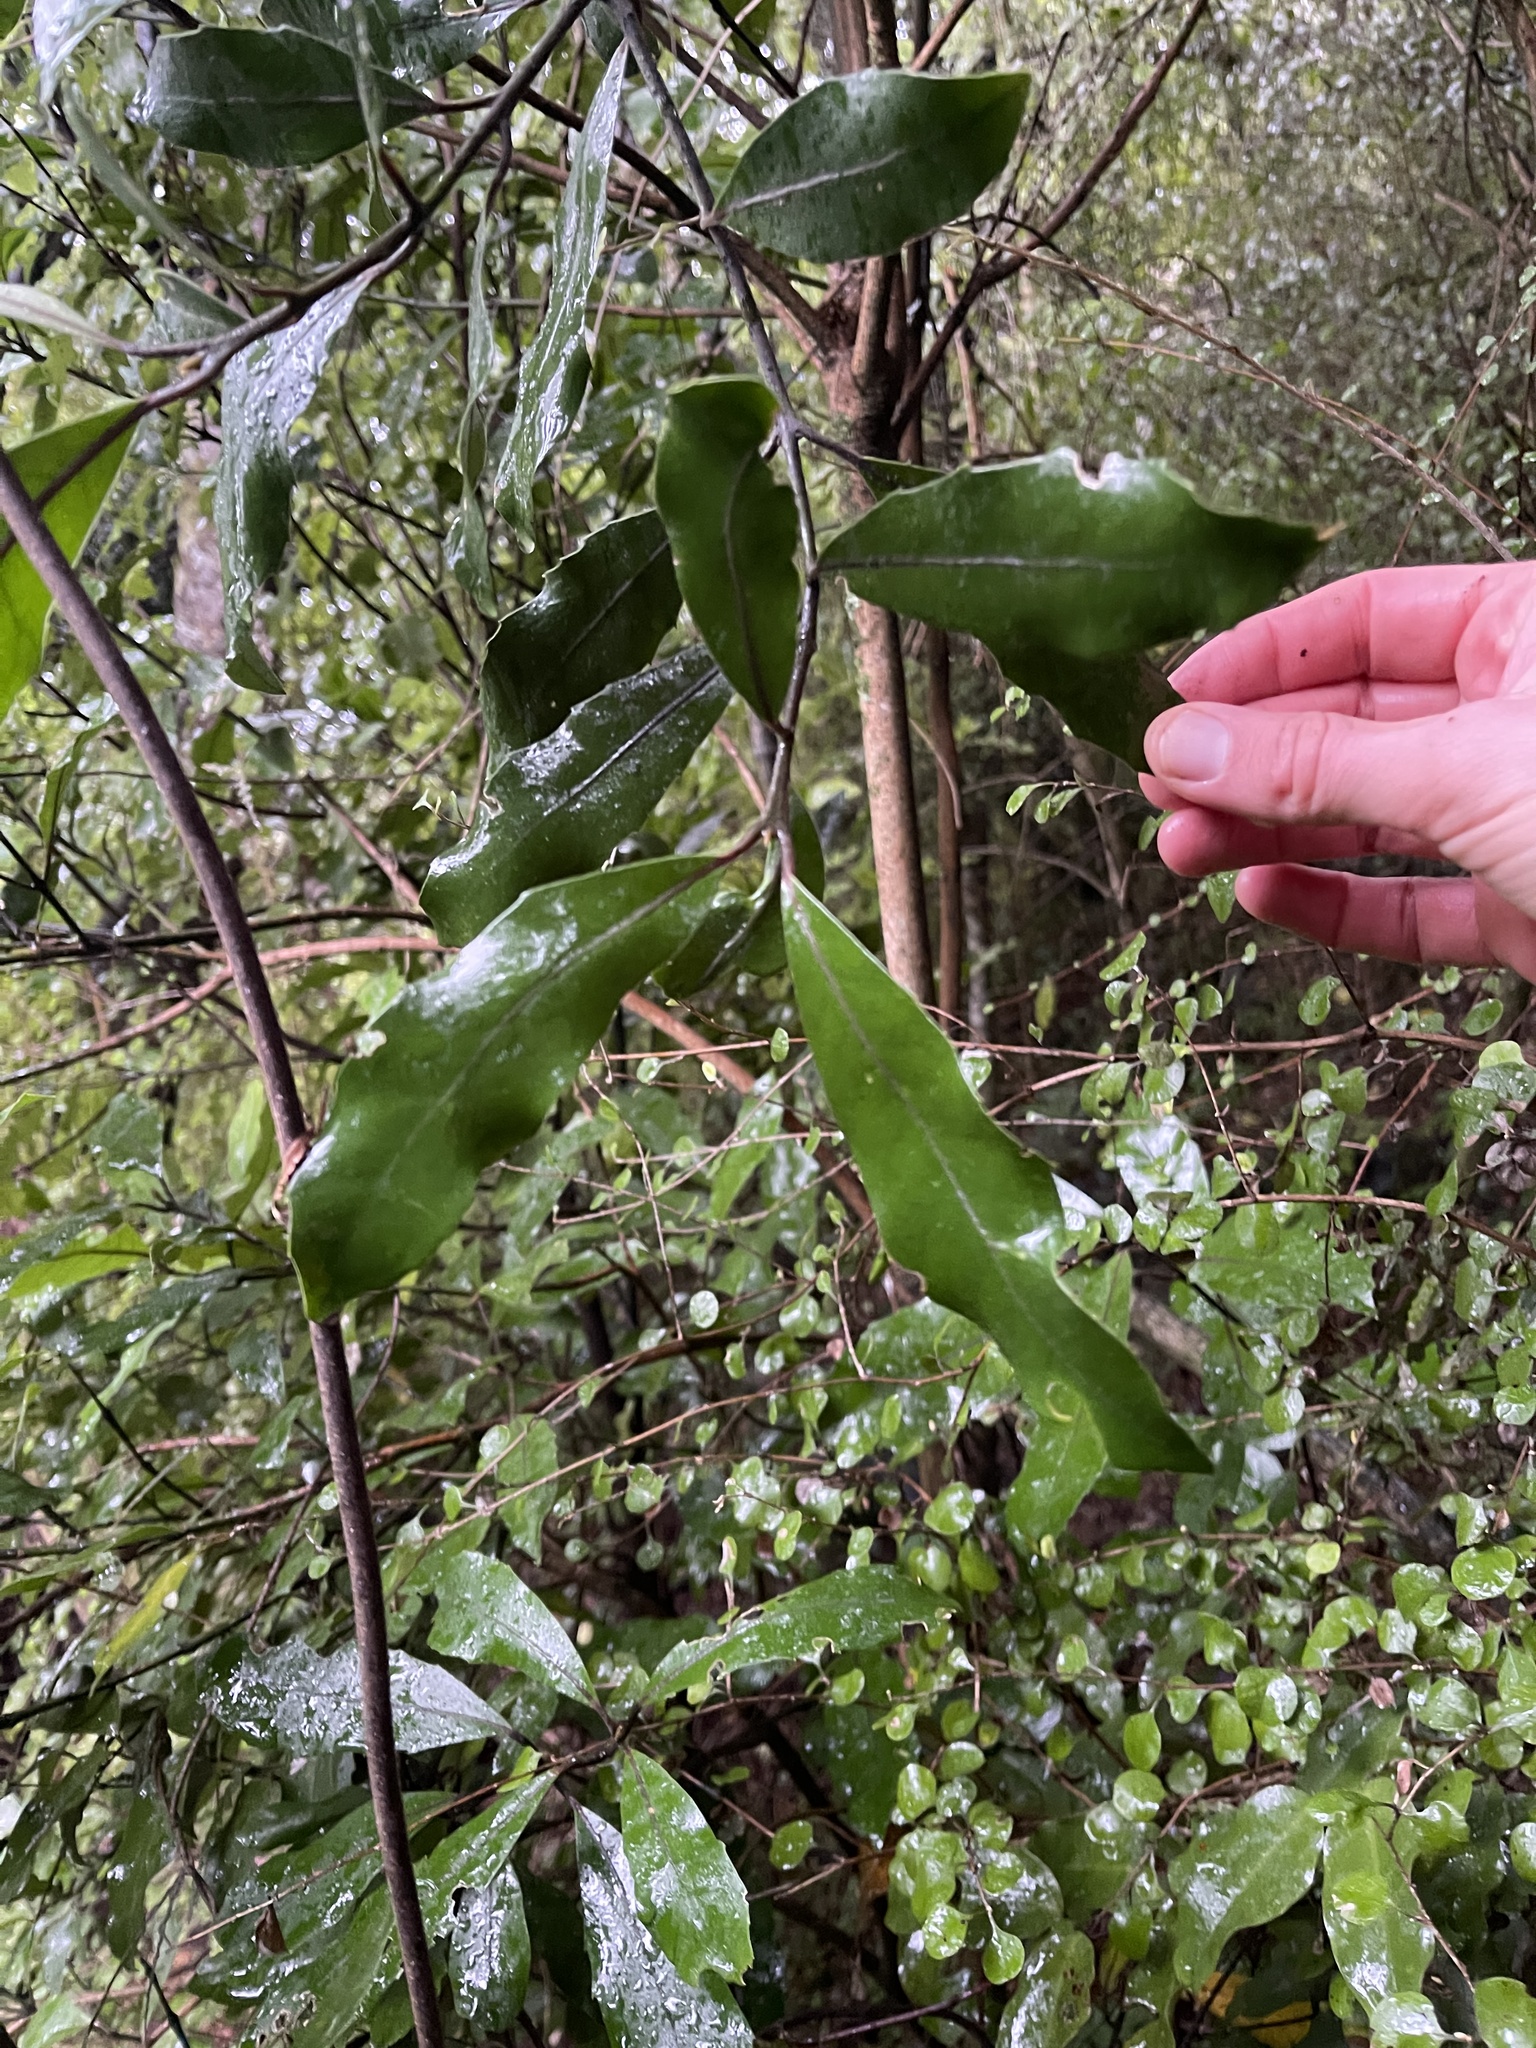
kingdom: Plantae
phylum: Tracheophyta
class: Magnoliopsida
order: Laurales
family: Monimiaceae
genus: Hedycarya
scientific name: Hedycarya arborea
